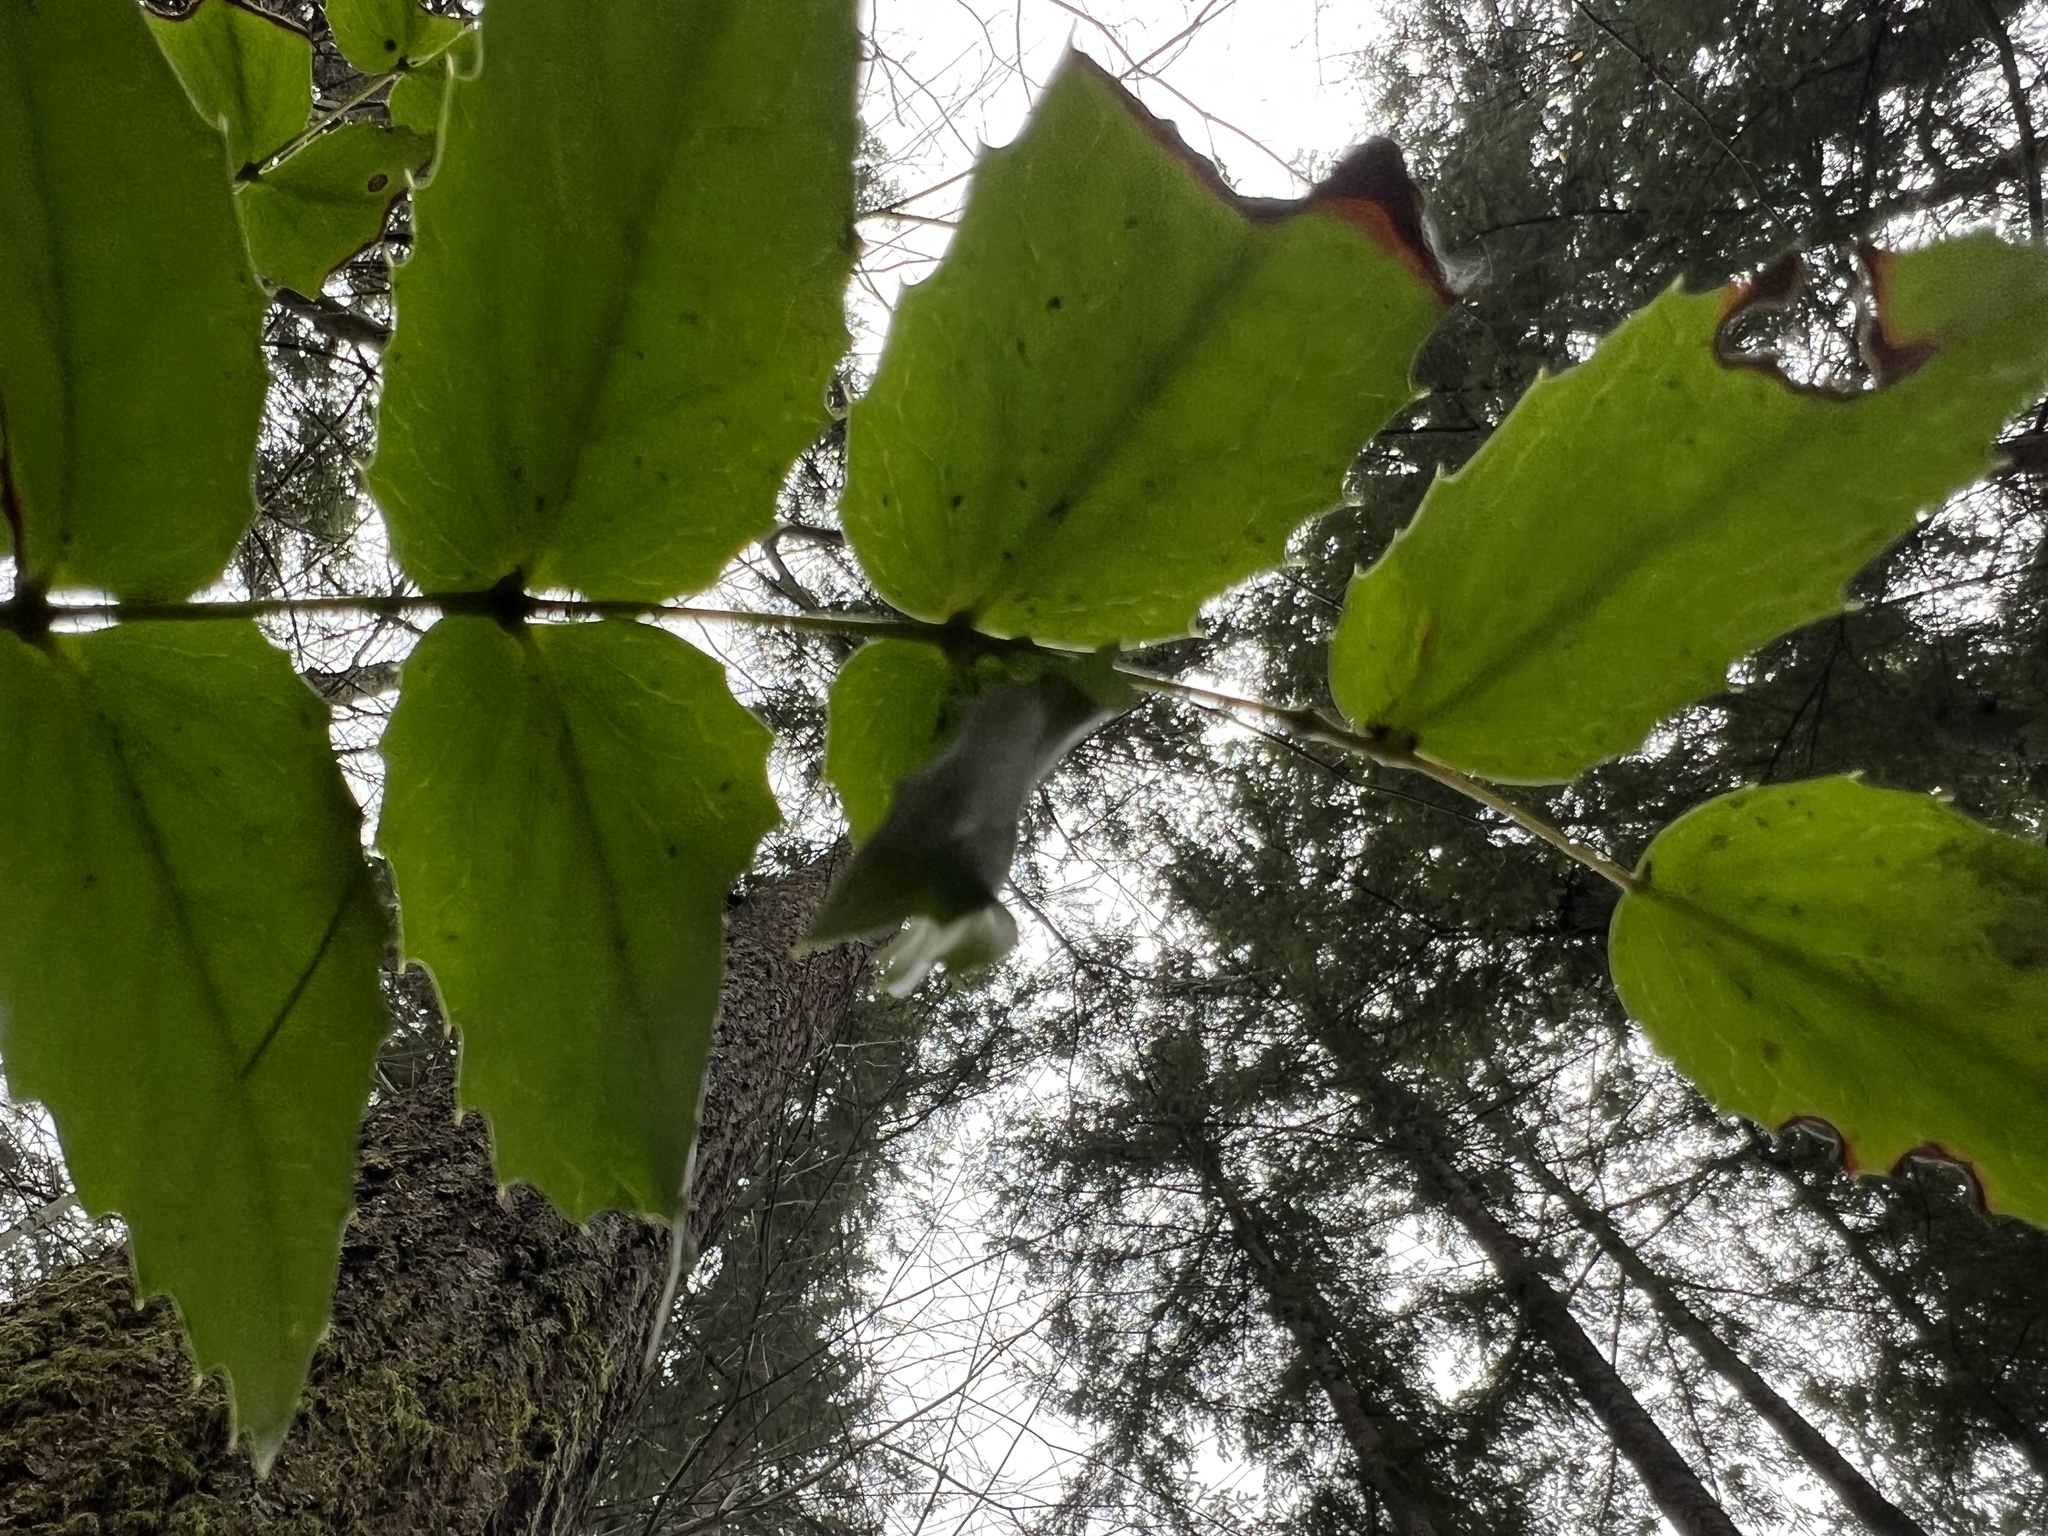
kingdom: Plantae
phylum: Tracheophyta
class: Magnoliopsida
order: Ranunculales
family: Berberidaceae
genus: Mahonia
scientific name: Mahonia nervosa
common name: Cascade oregon-grape
